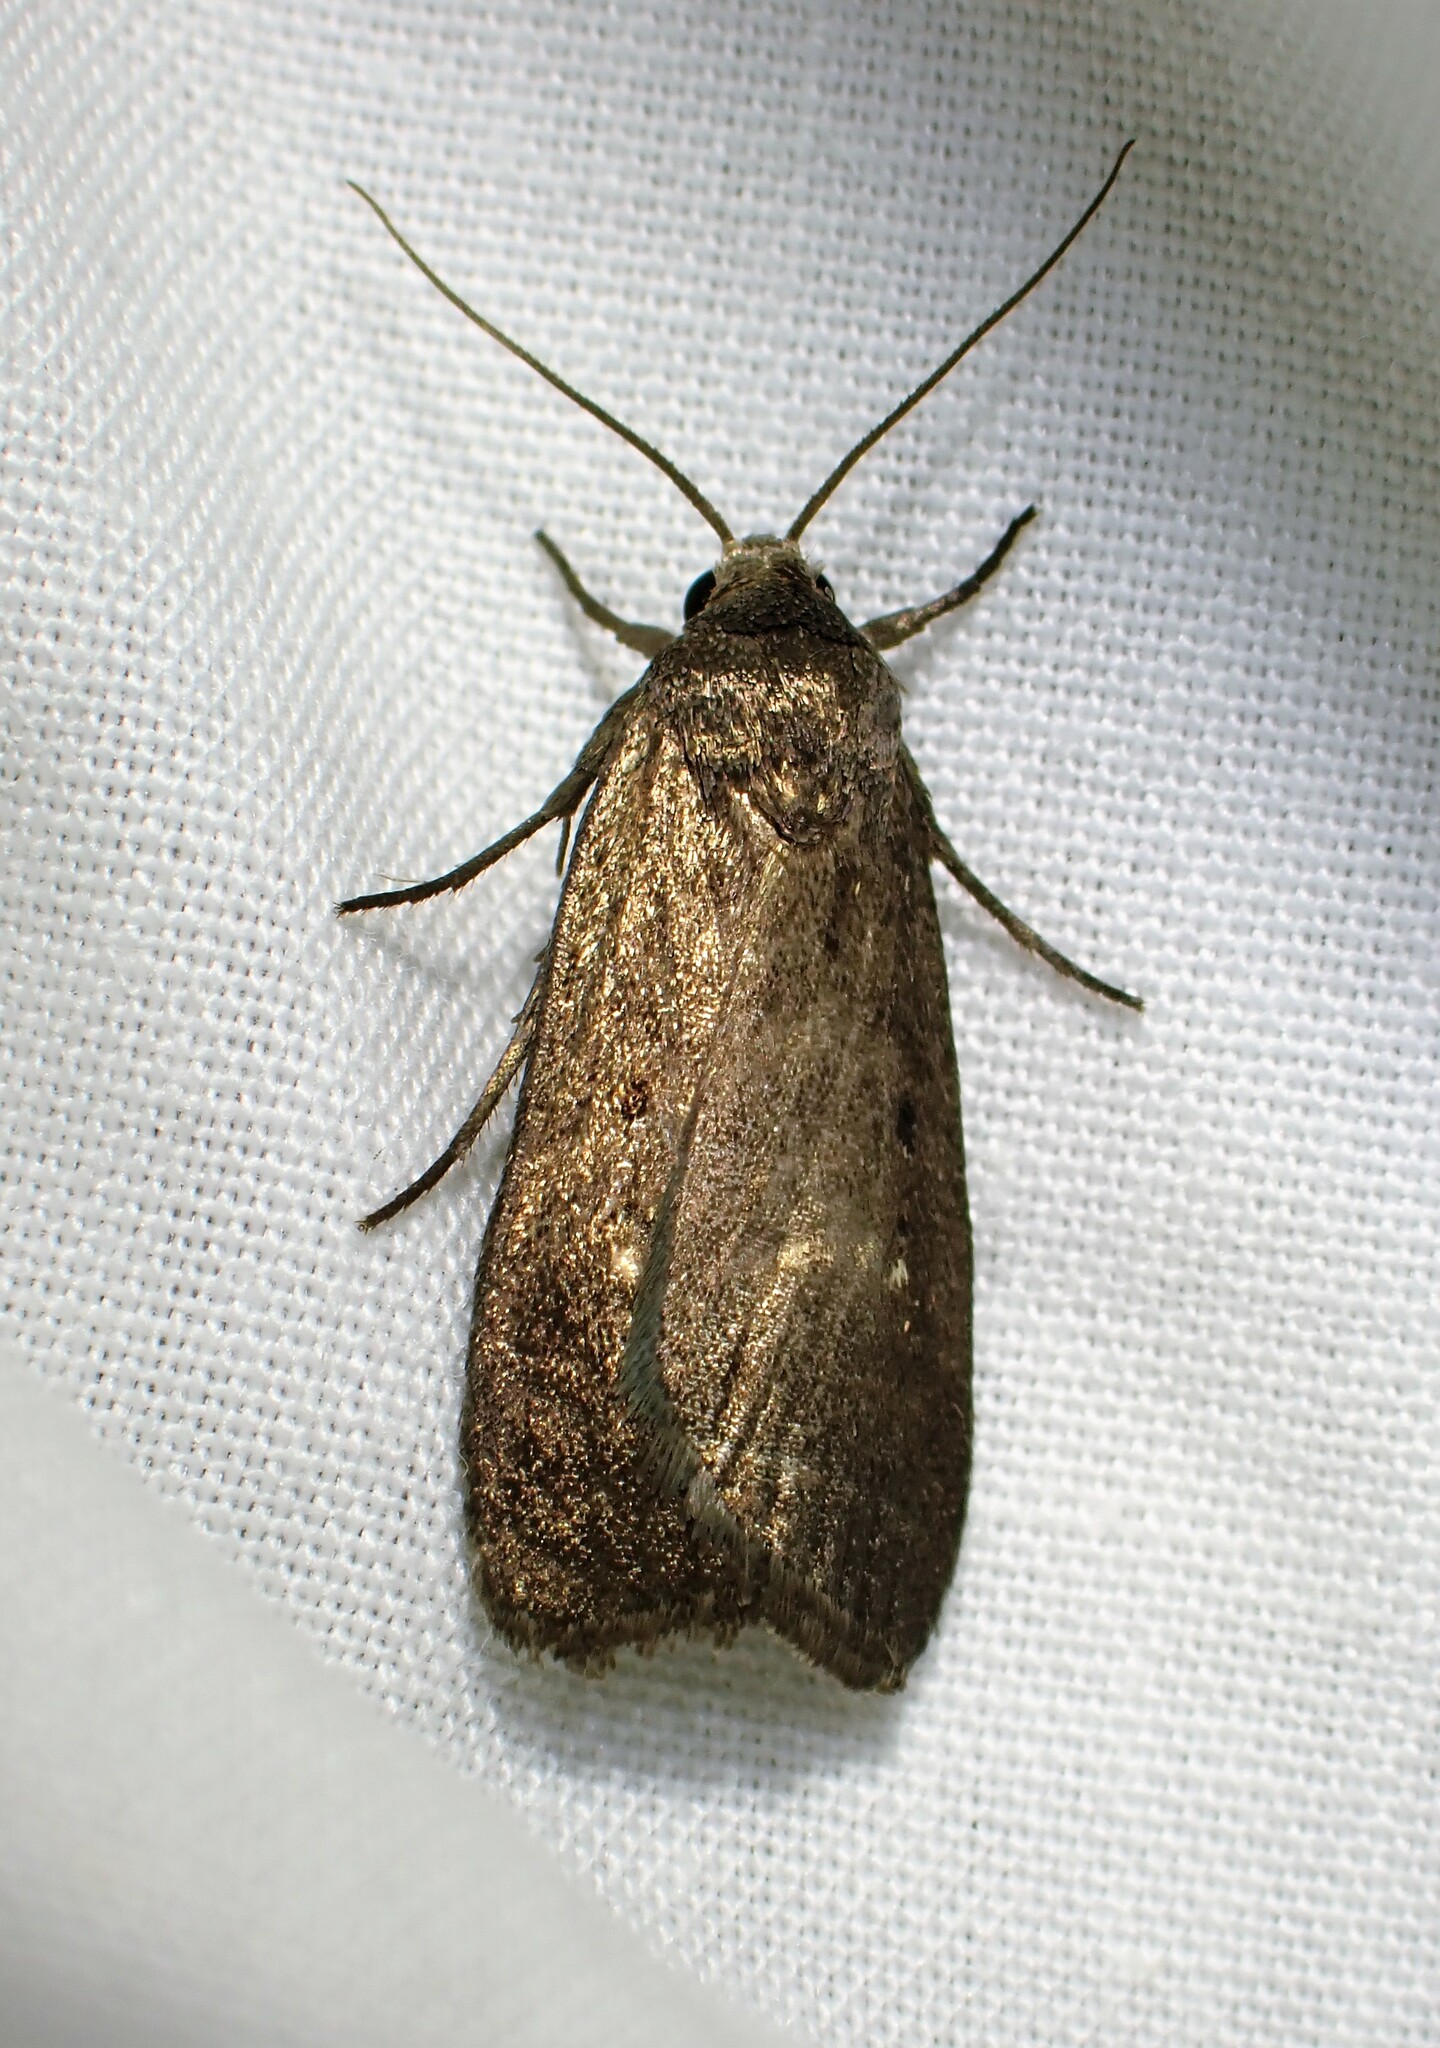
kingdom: Animalia
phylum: Arthropoda
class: Insecta
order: Lepidoptera
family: Noctuidae
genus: Proxenus
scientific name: Proxenus miranda
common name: Miranda moth
